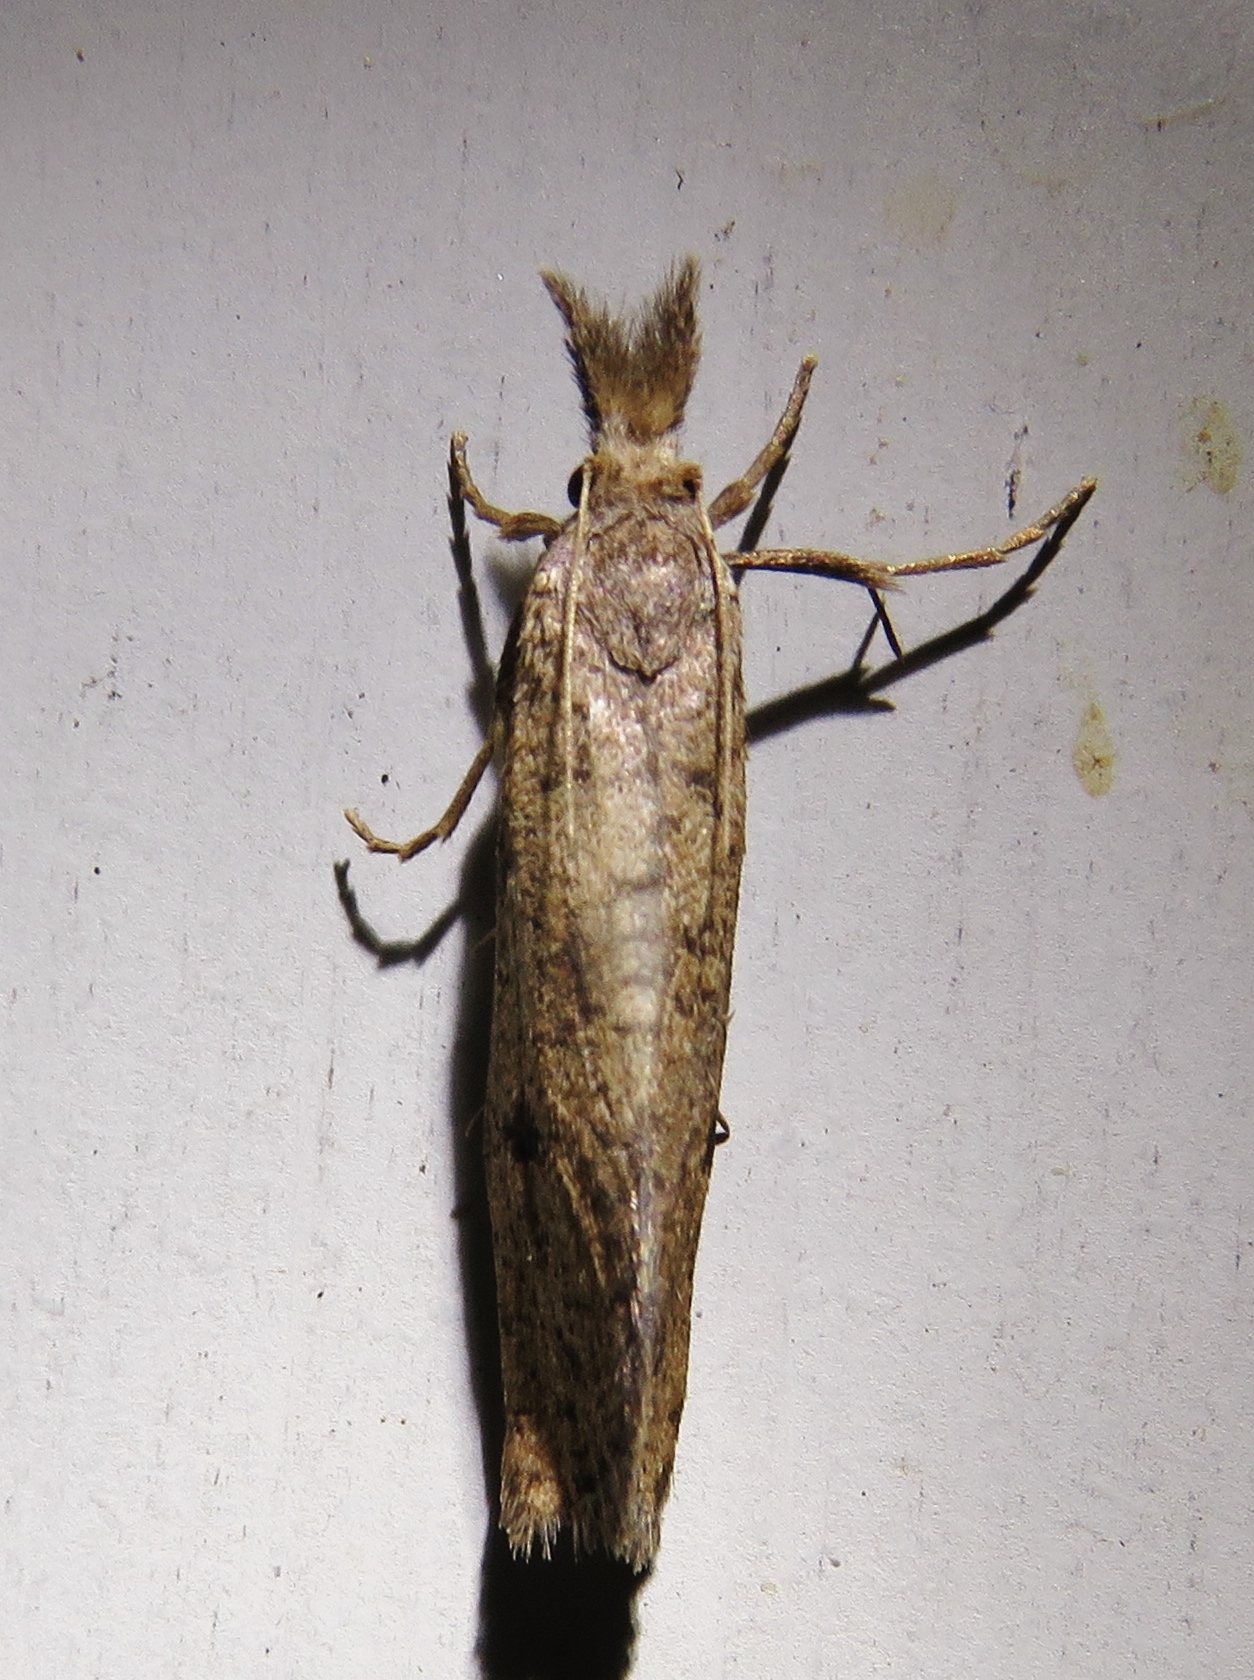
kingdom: Animalia
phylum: Arthropoda
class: Insecta
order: Lepidoptera
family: Tineidae
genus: Acrolophus
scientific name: Acrolophus mortipennella
